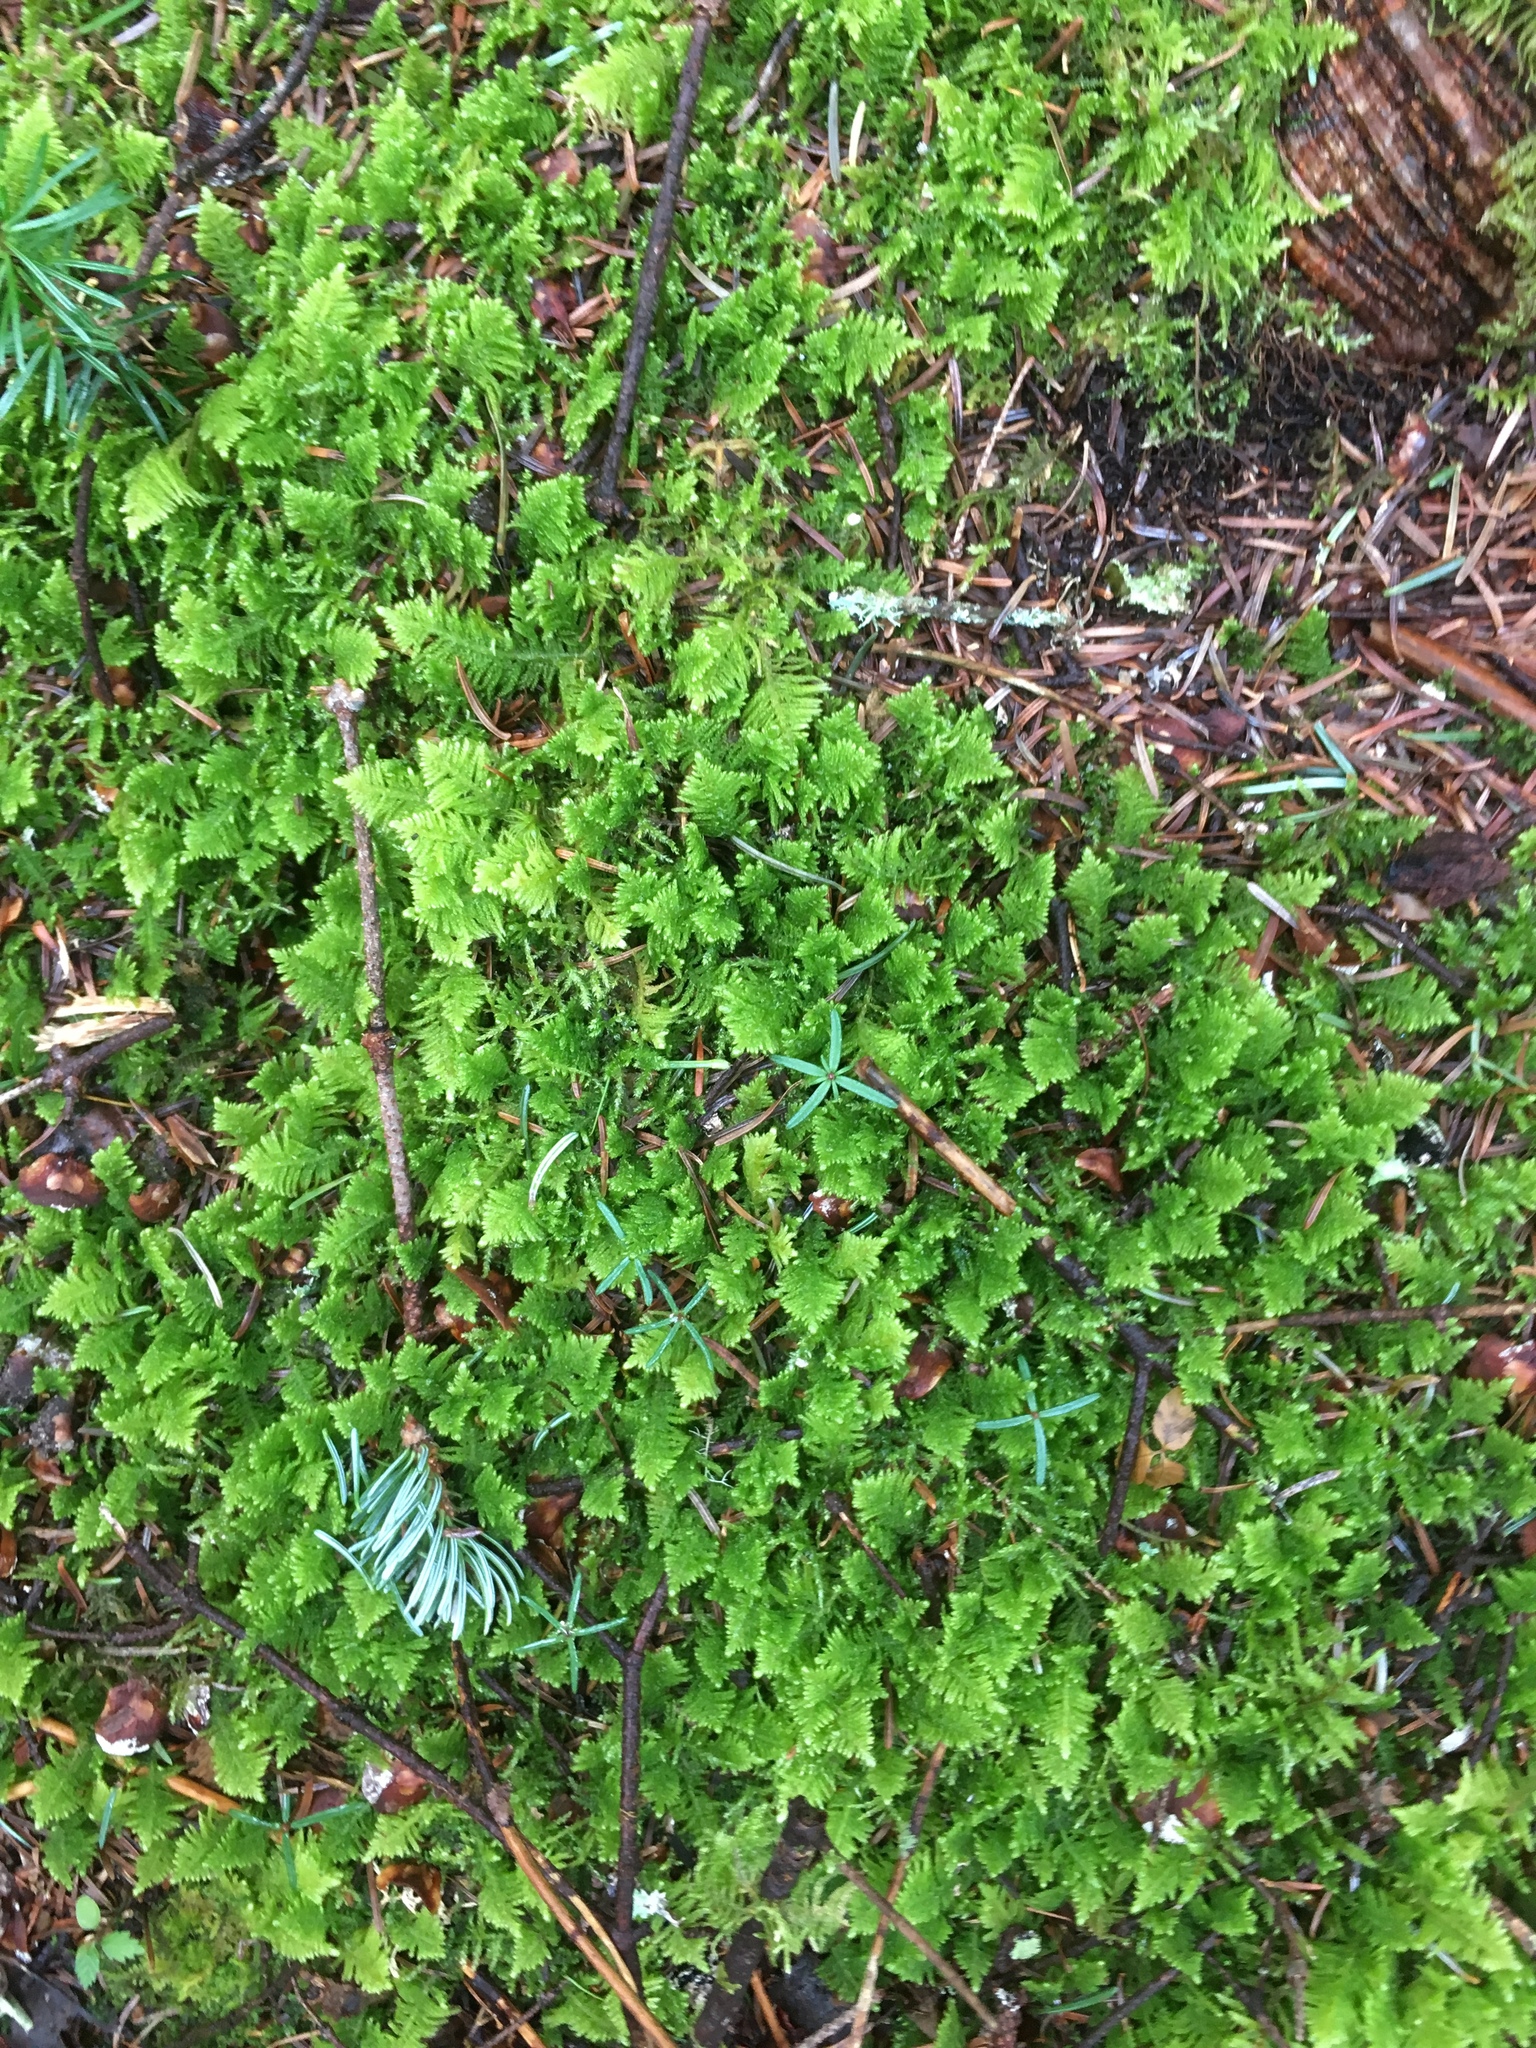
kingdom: Plantae
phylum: Bryophyta
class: Bryopsida
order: Hypnales
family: Pylaisiaceae
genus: Ptilium
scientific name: Ptilium crista-castrensis
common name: Knight's plume moss
